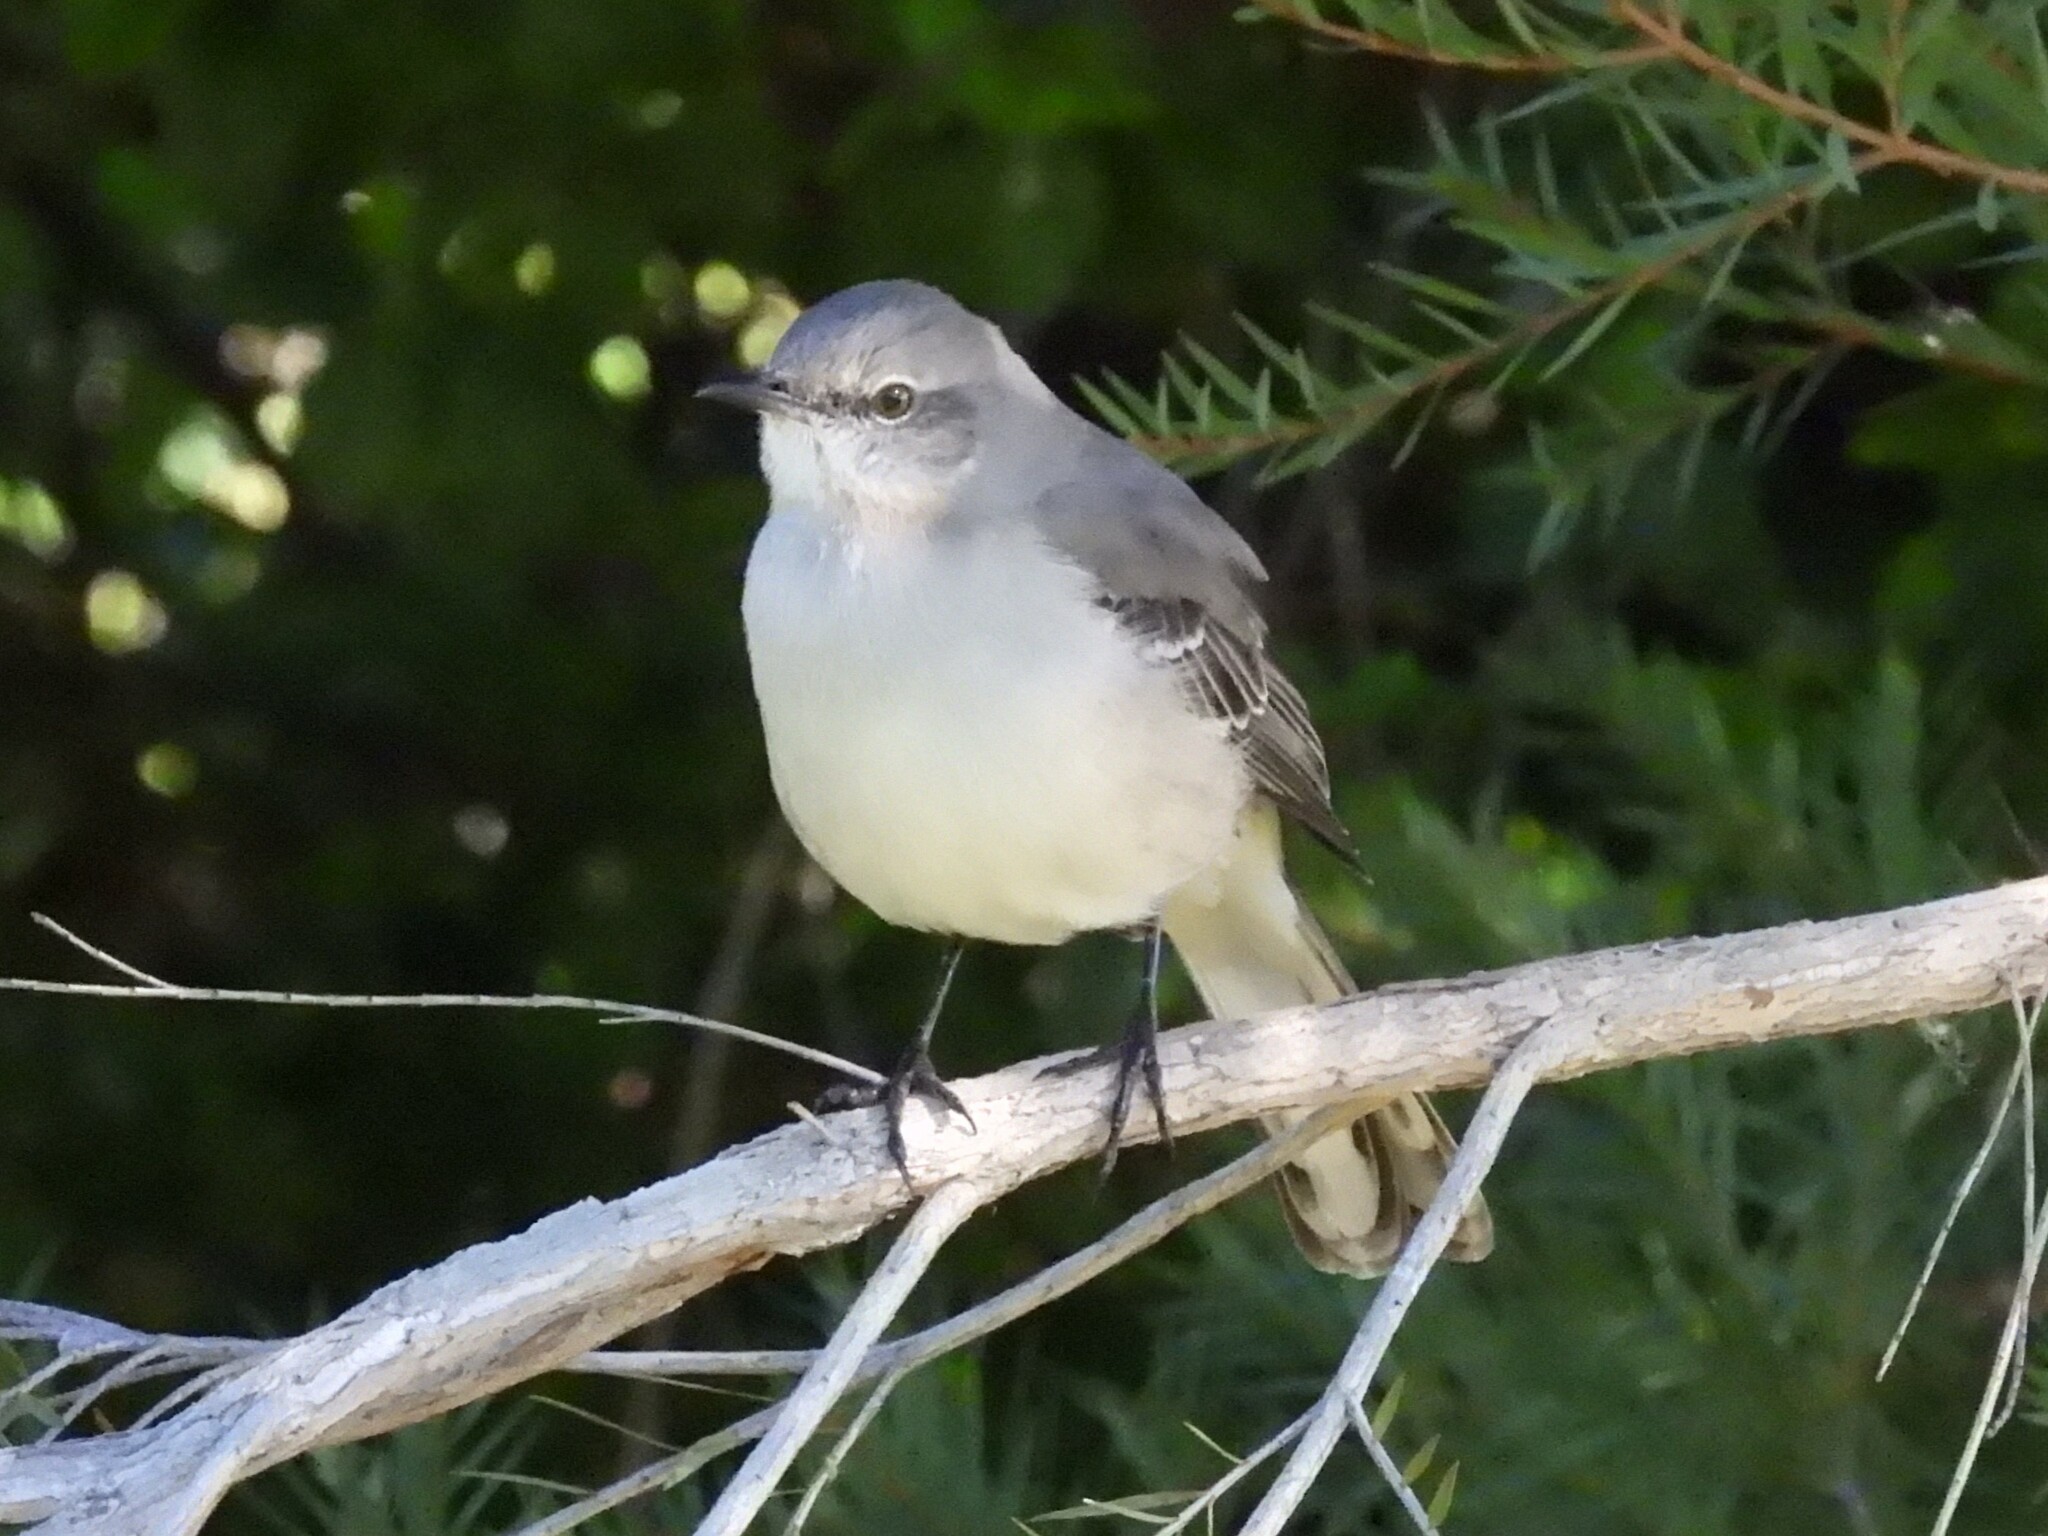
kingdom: Animalia
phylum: Chordata
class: Aves
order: Passeriformes
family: Mimidae
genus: Mimus
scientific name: Mimus polyglottos
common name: Northern mockingbird
